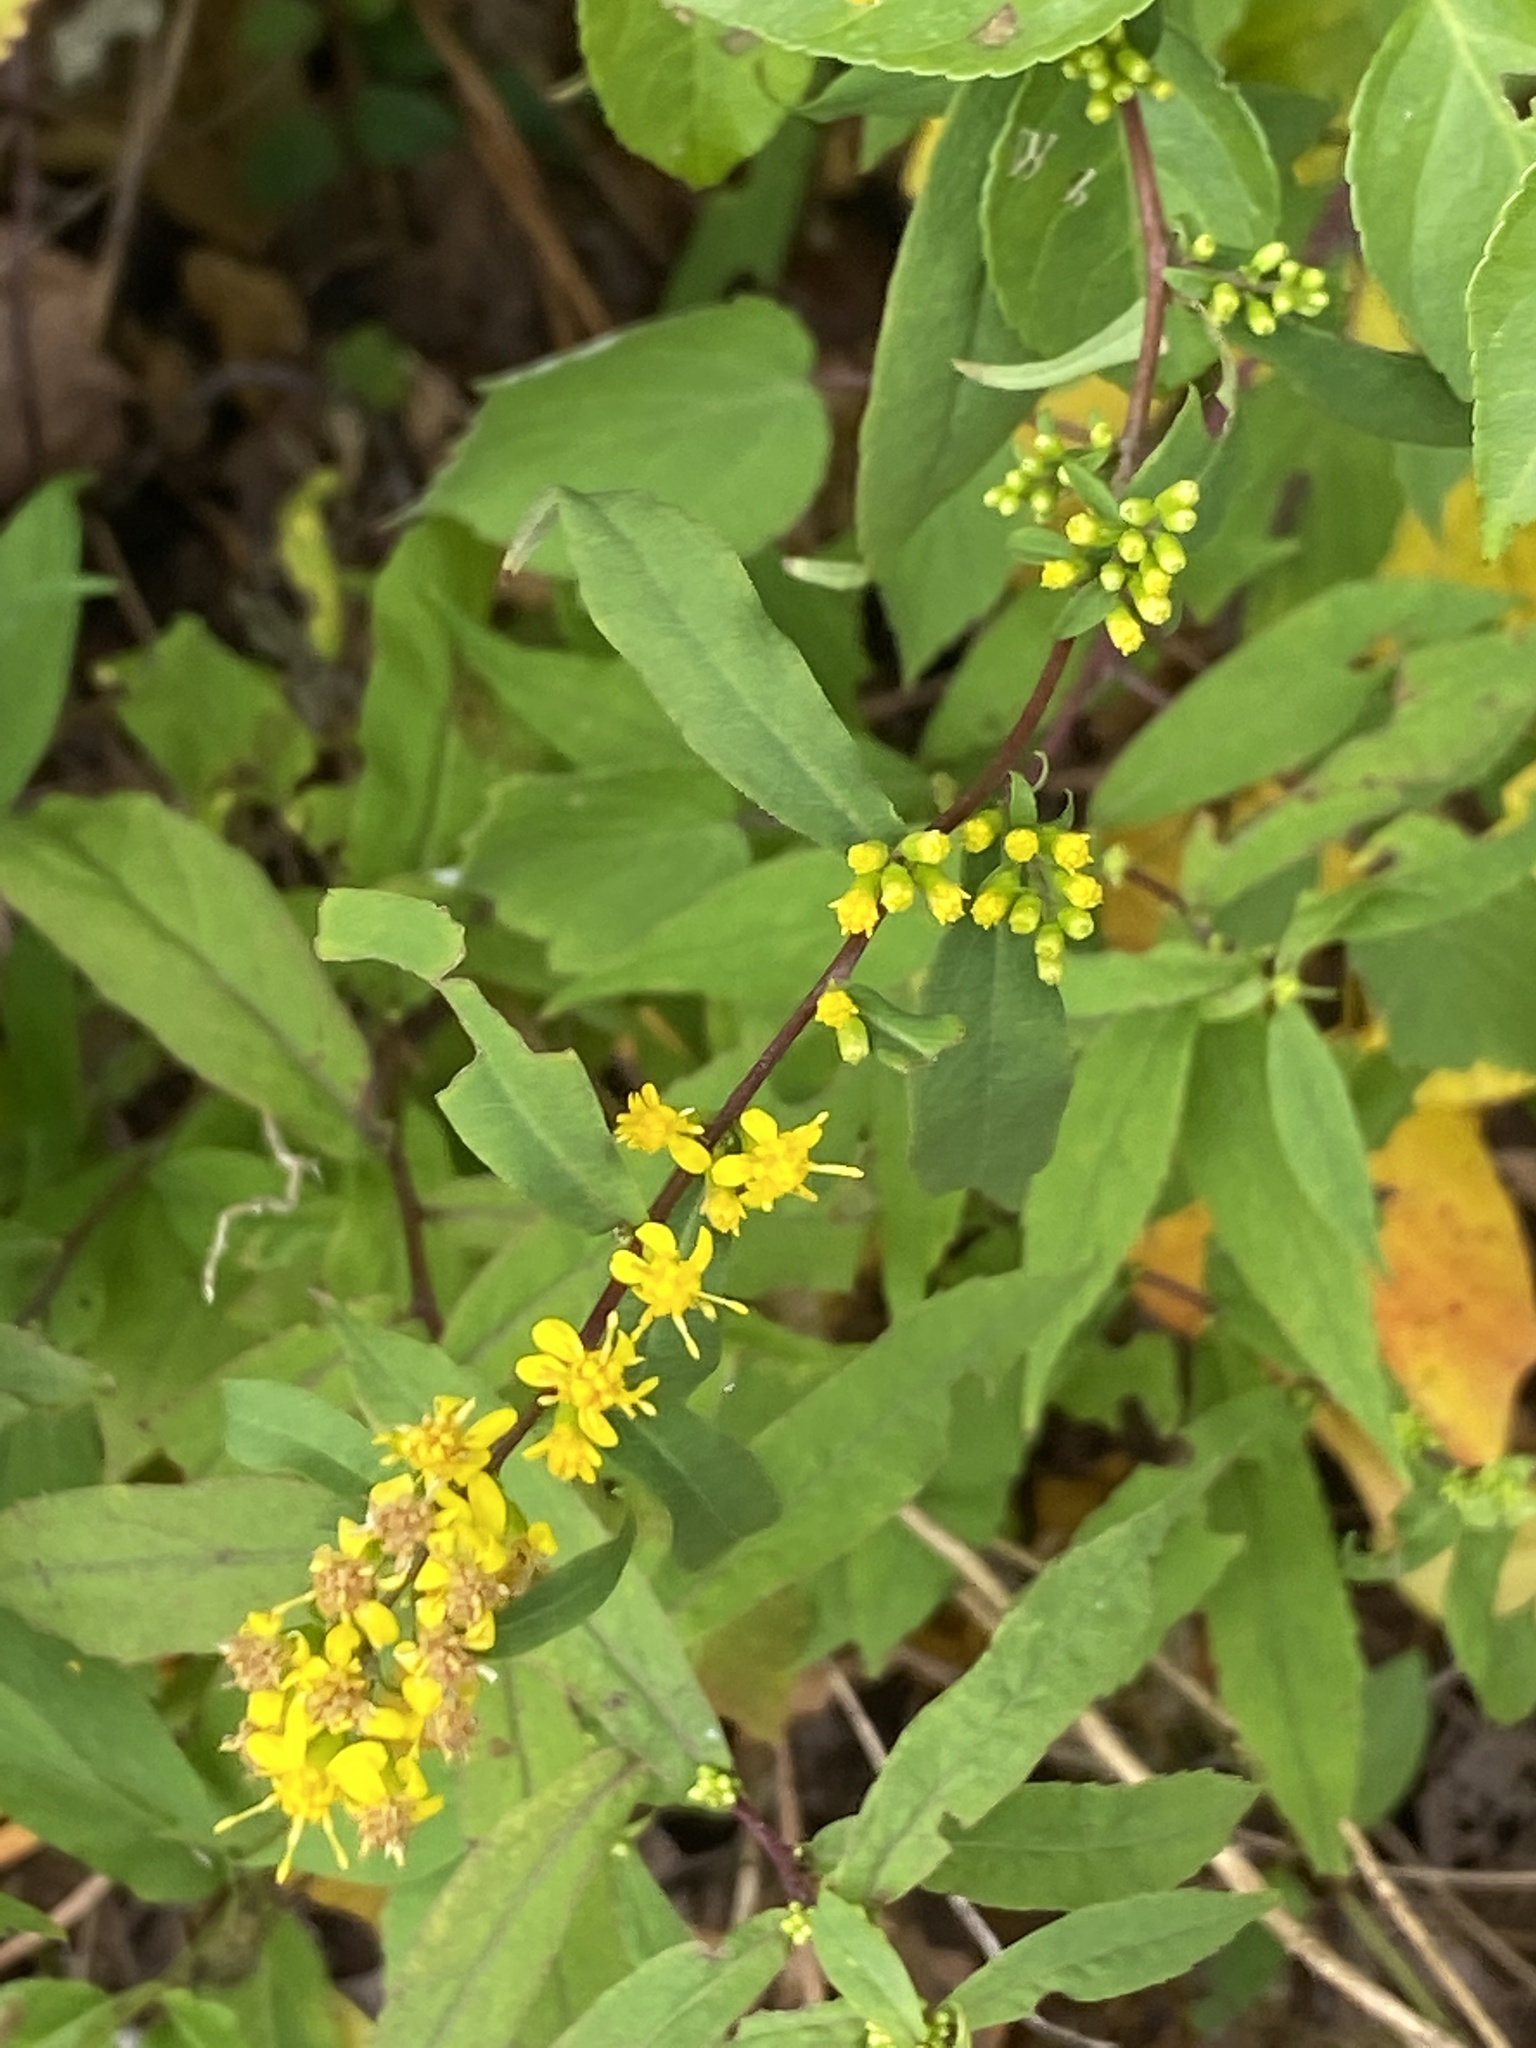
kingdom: Plantae
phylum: Tracheophyta
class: Magnoliopsida
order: Asterales
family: Asteraceae
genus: Solidago
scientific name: Solidago caesia
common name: Woodland goldenrod
